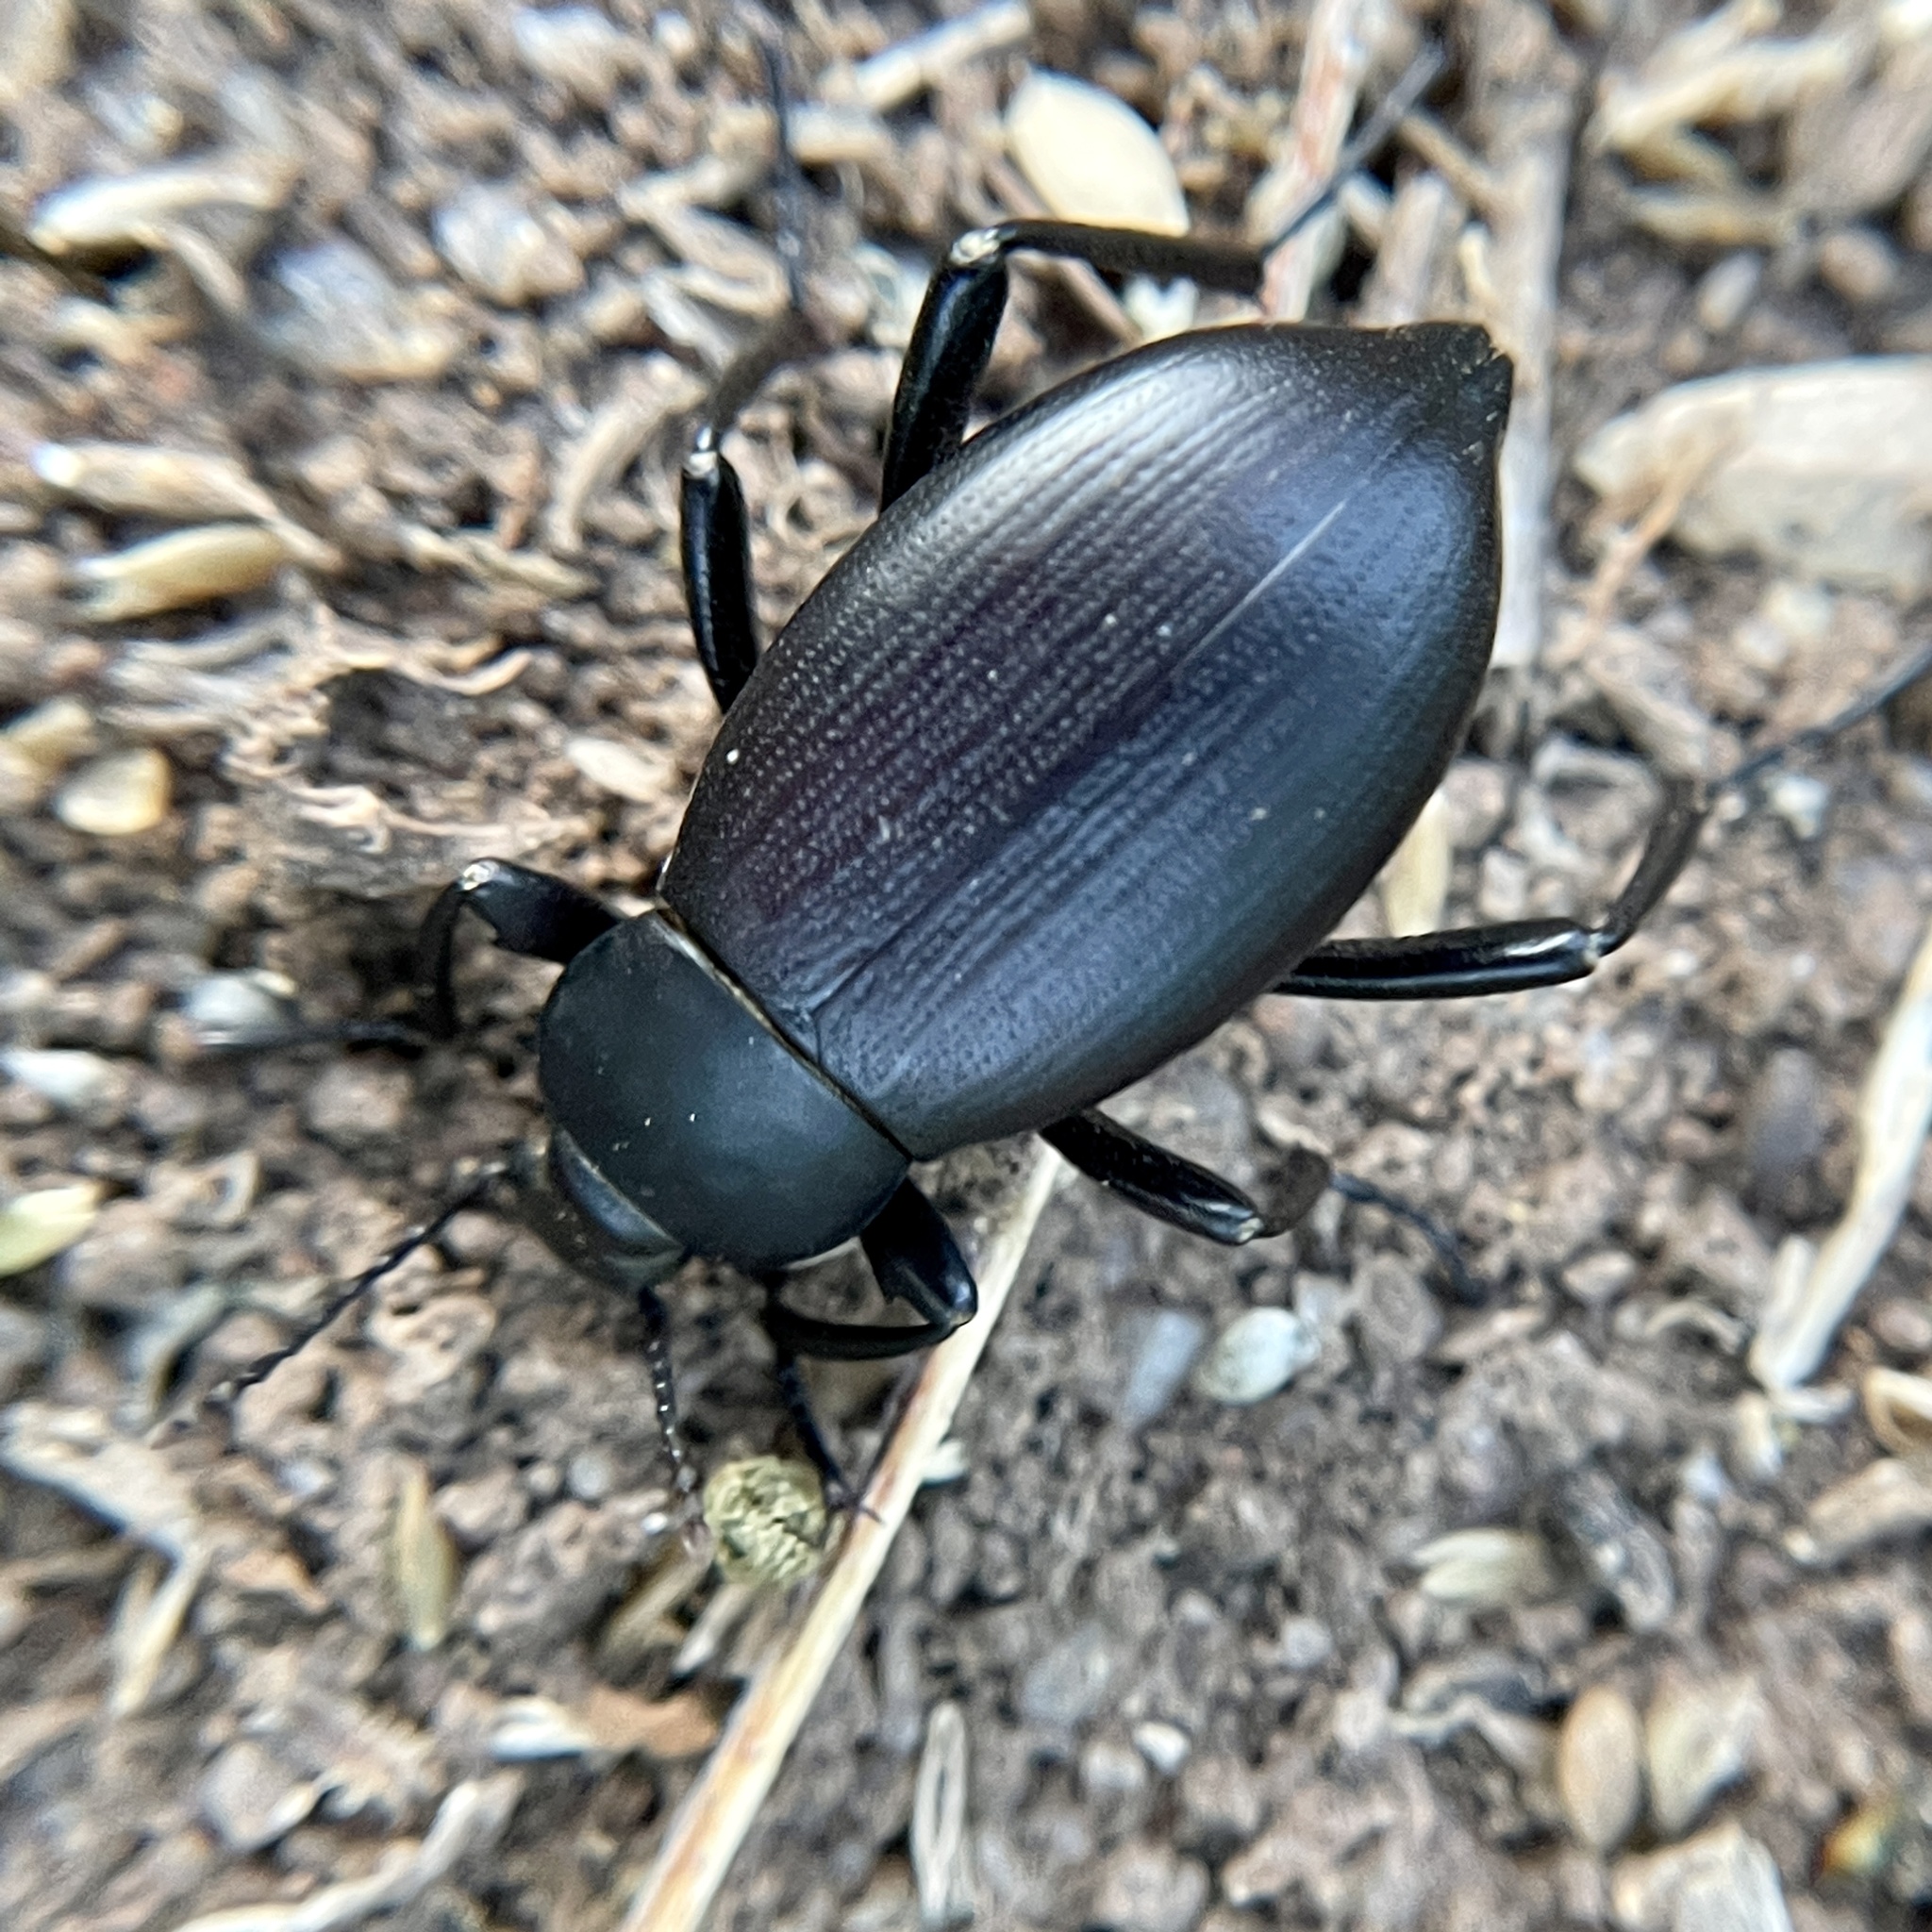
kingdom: Animalia
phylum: Arthropoda
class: Insecta
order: Coleoptera
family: Tenebrionidae
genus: Eleodes
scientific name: Eleodes striolata
